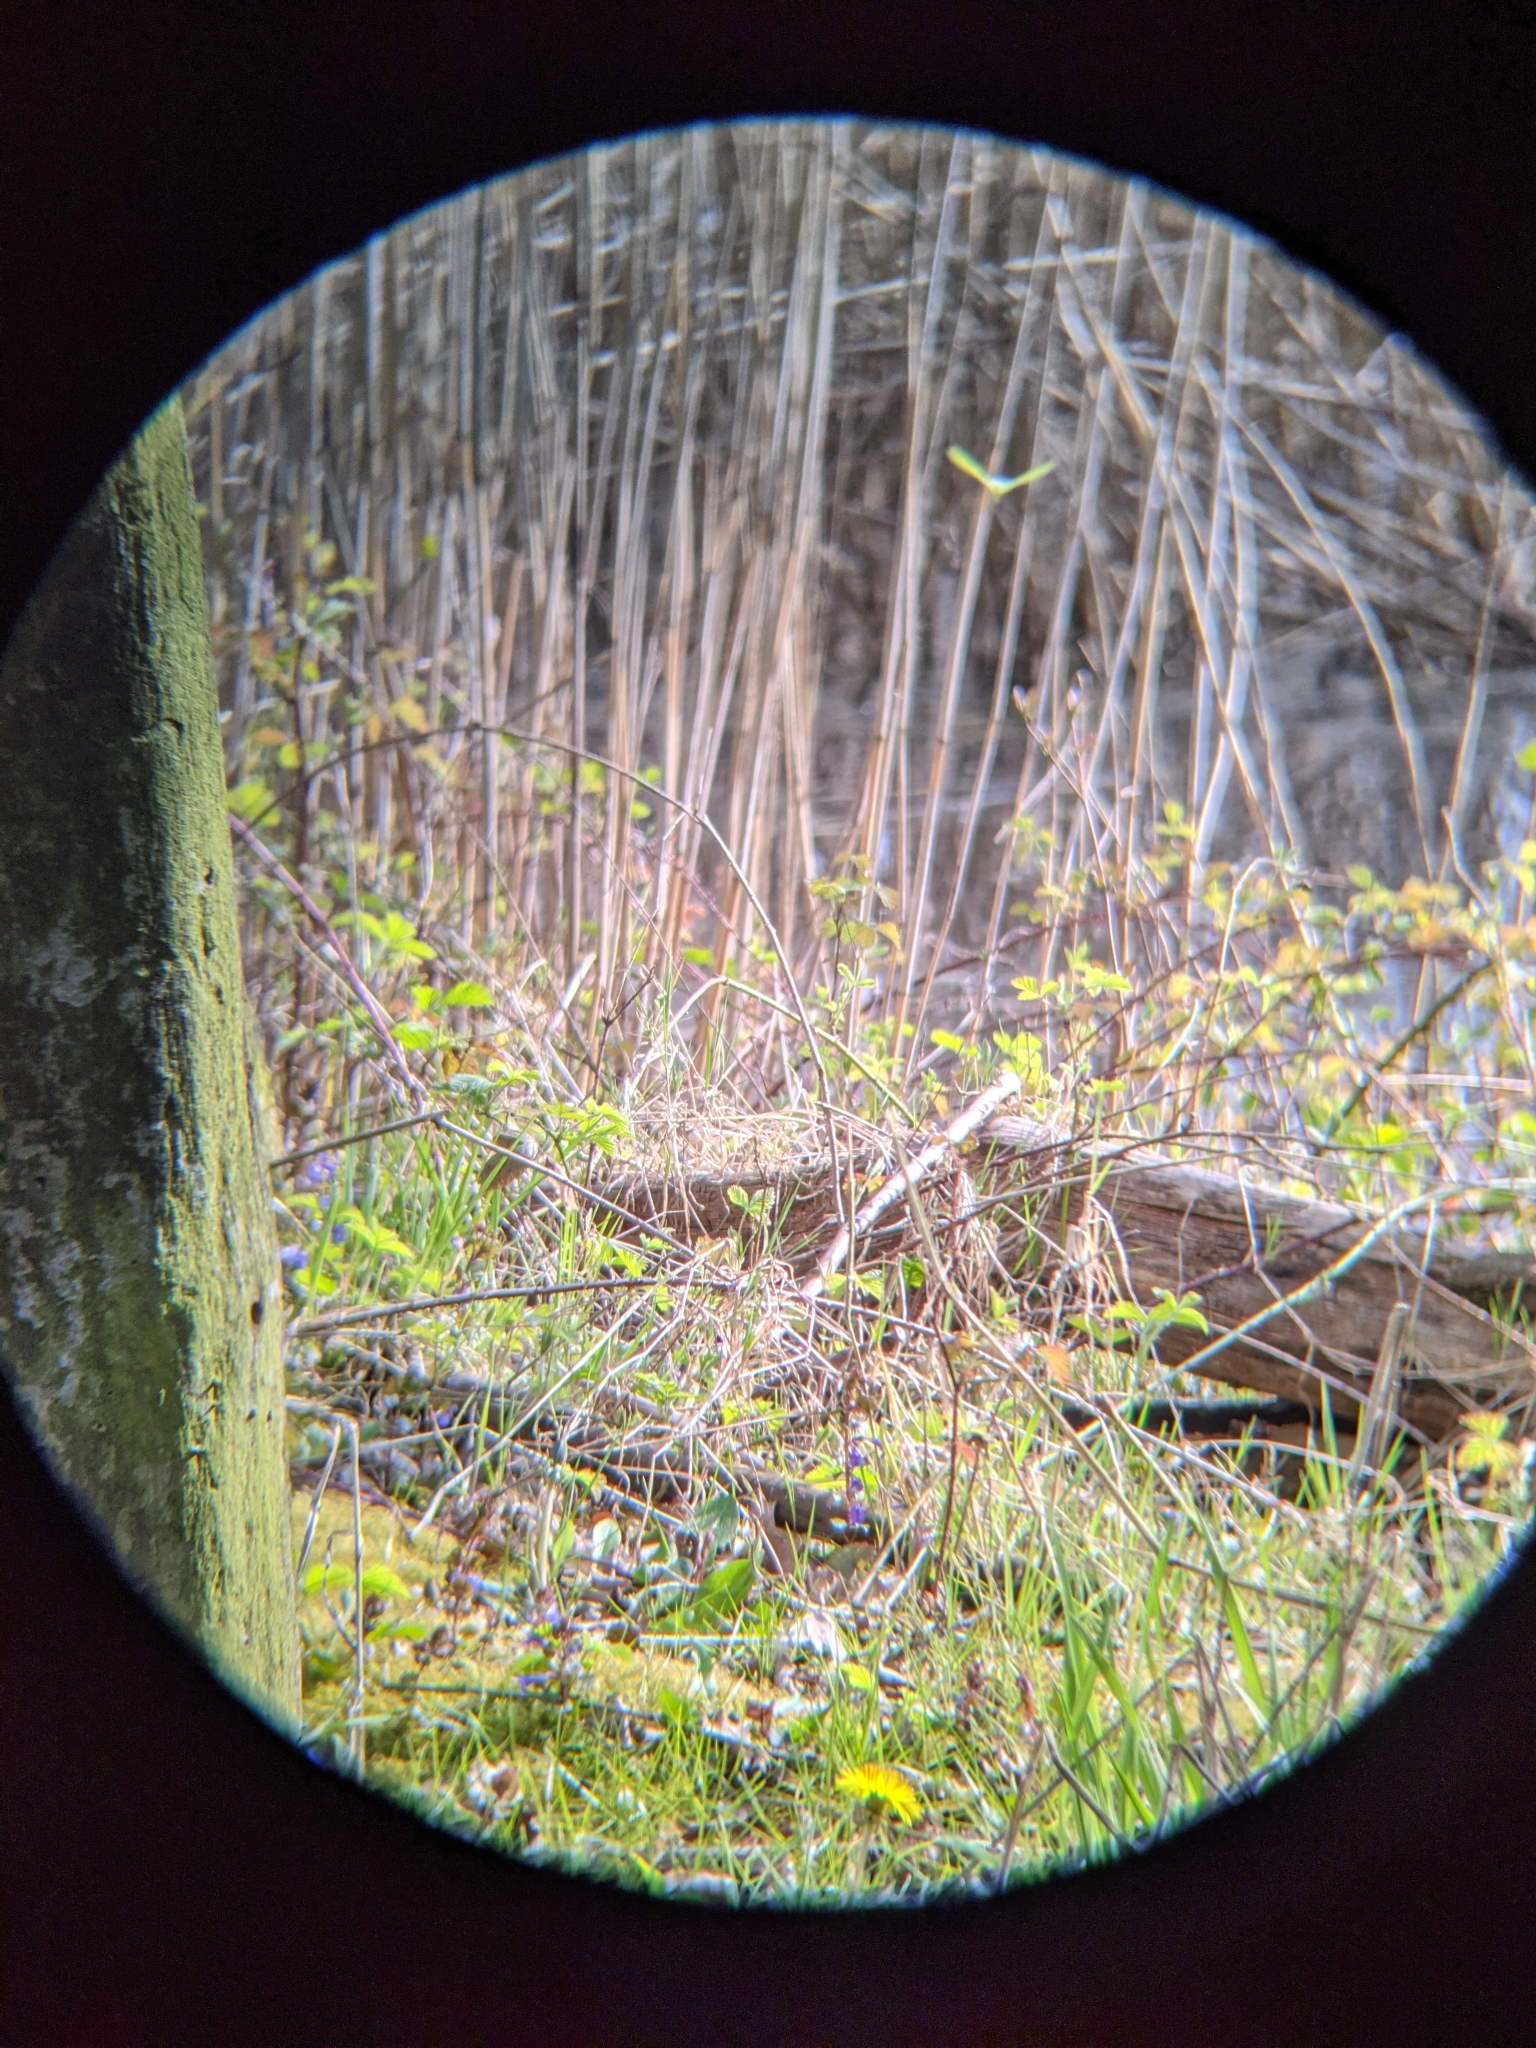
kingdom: Animalia
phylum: Arthropoda
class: Insecta
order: Lepidoptera
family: Pieridae
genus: Gonepteryx
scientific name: Gonepteryx rhamni
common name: Brimstone
